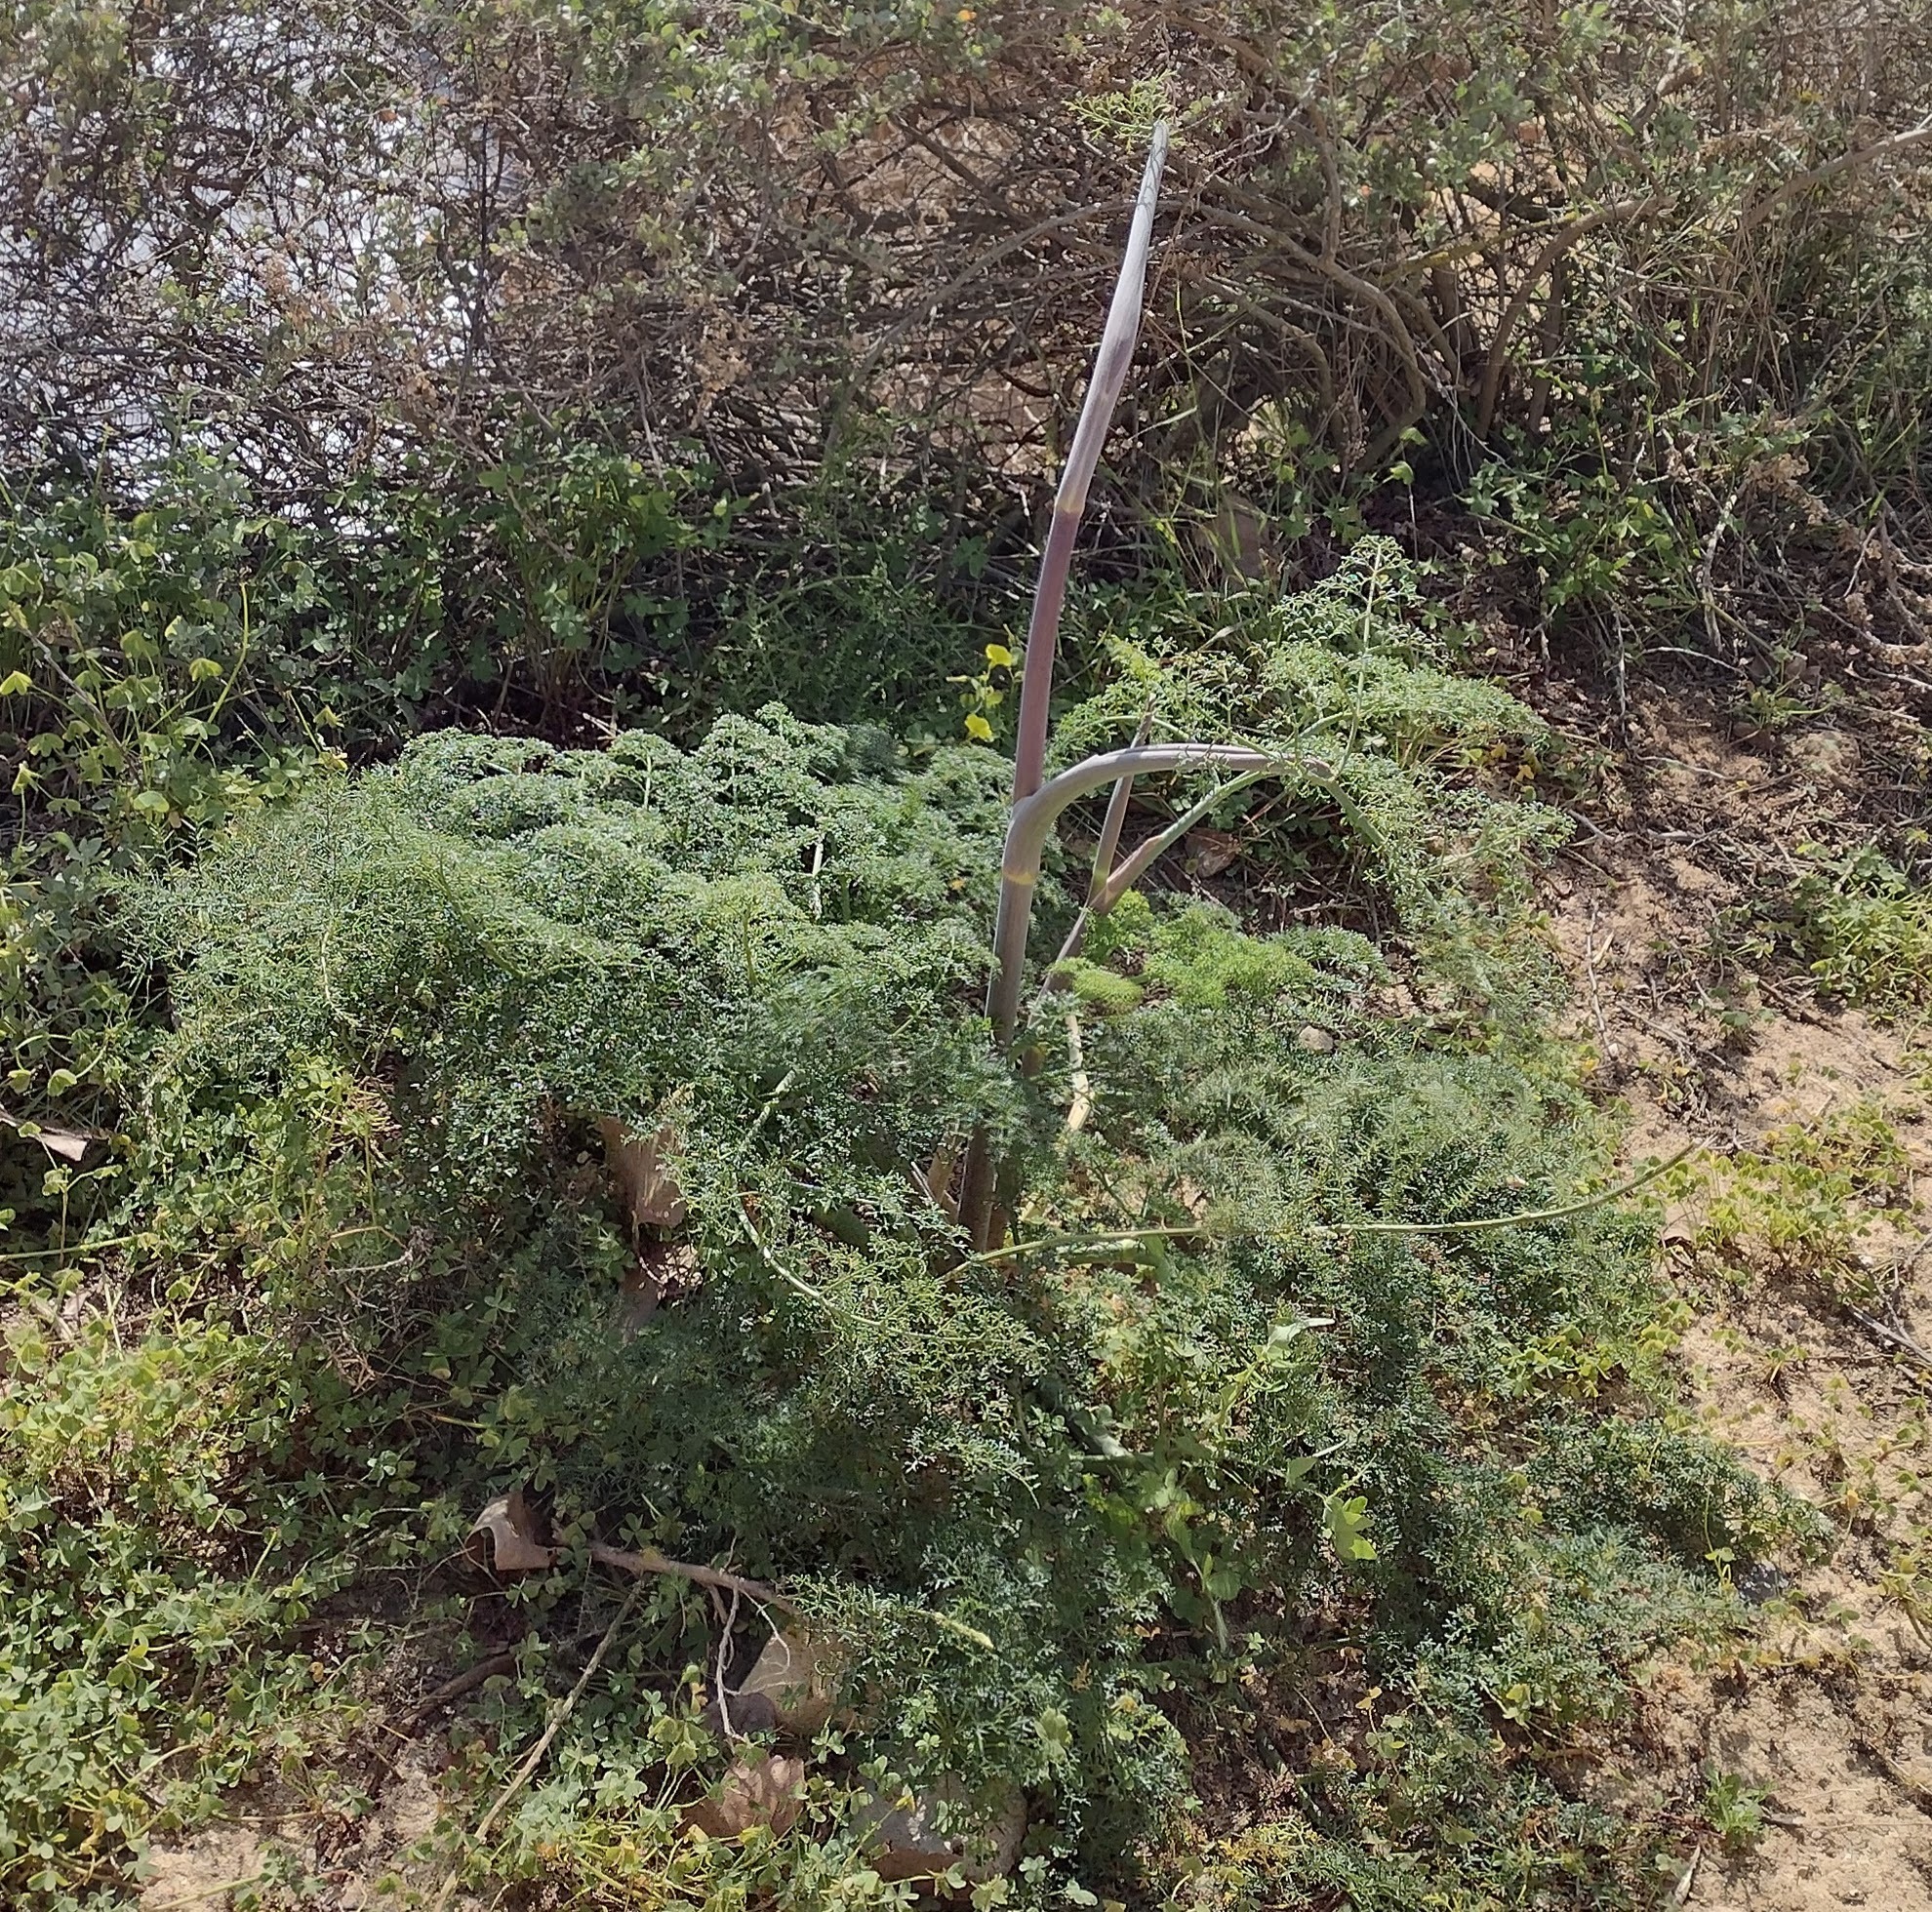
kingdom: Plantae
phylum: Tracheophyta
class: Magnoliopsida
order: Apiales
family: Apiaceae
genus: Ferula
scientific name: Ferula communis
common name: Giant fennel
